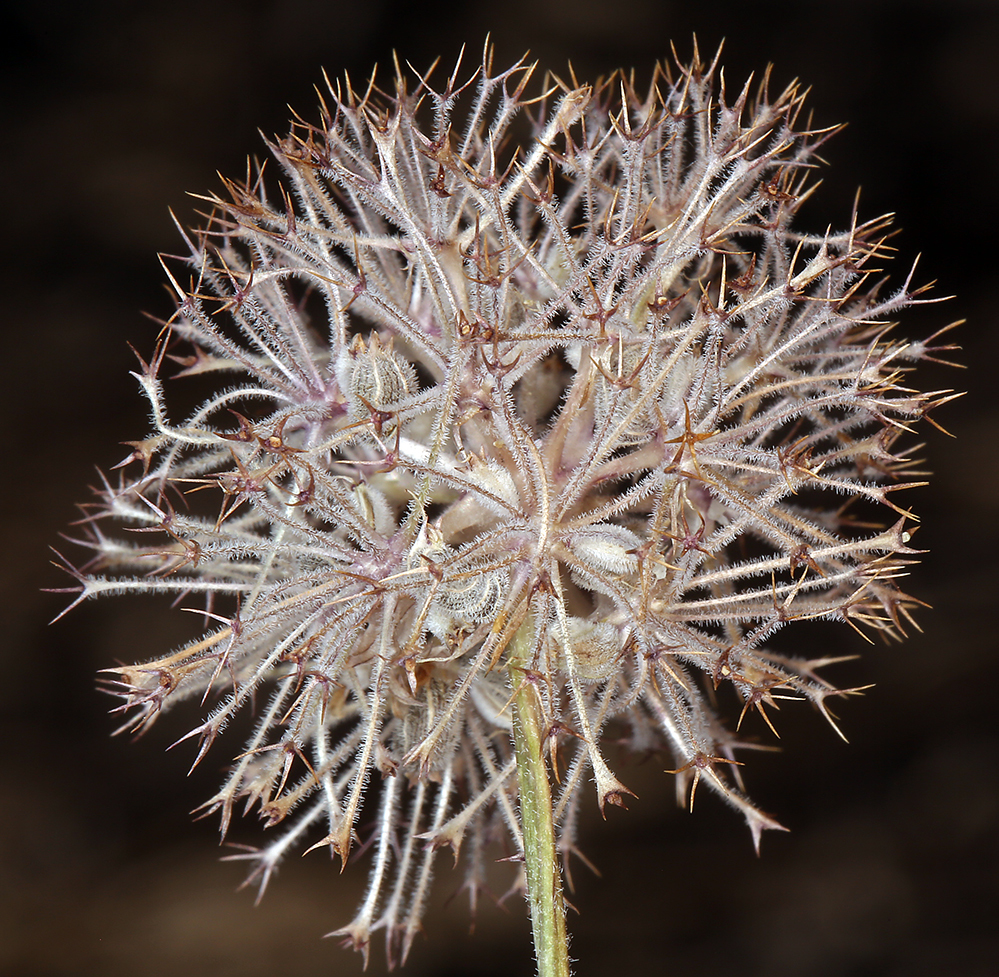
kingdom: Plantae
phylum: Tracheophyta
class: Magnoliopsida
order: Apiales
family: Apiaceae
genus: Oreonana
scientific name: Oreonana purpurascens
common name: Purple mountain-parsley
